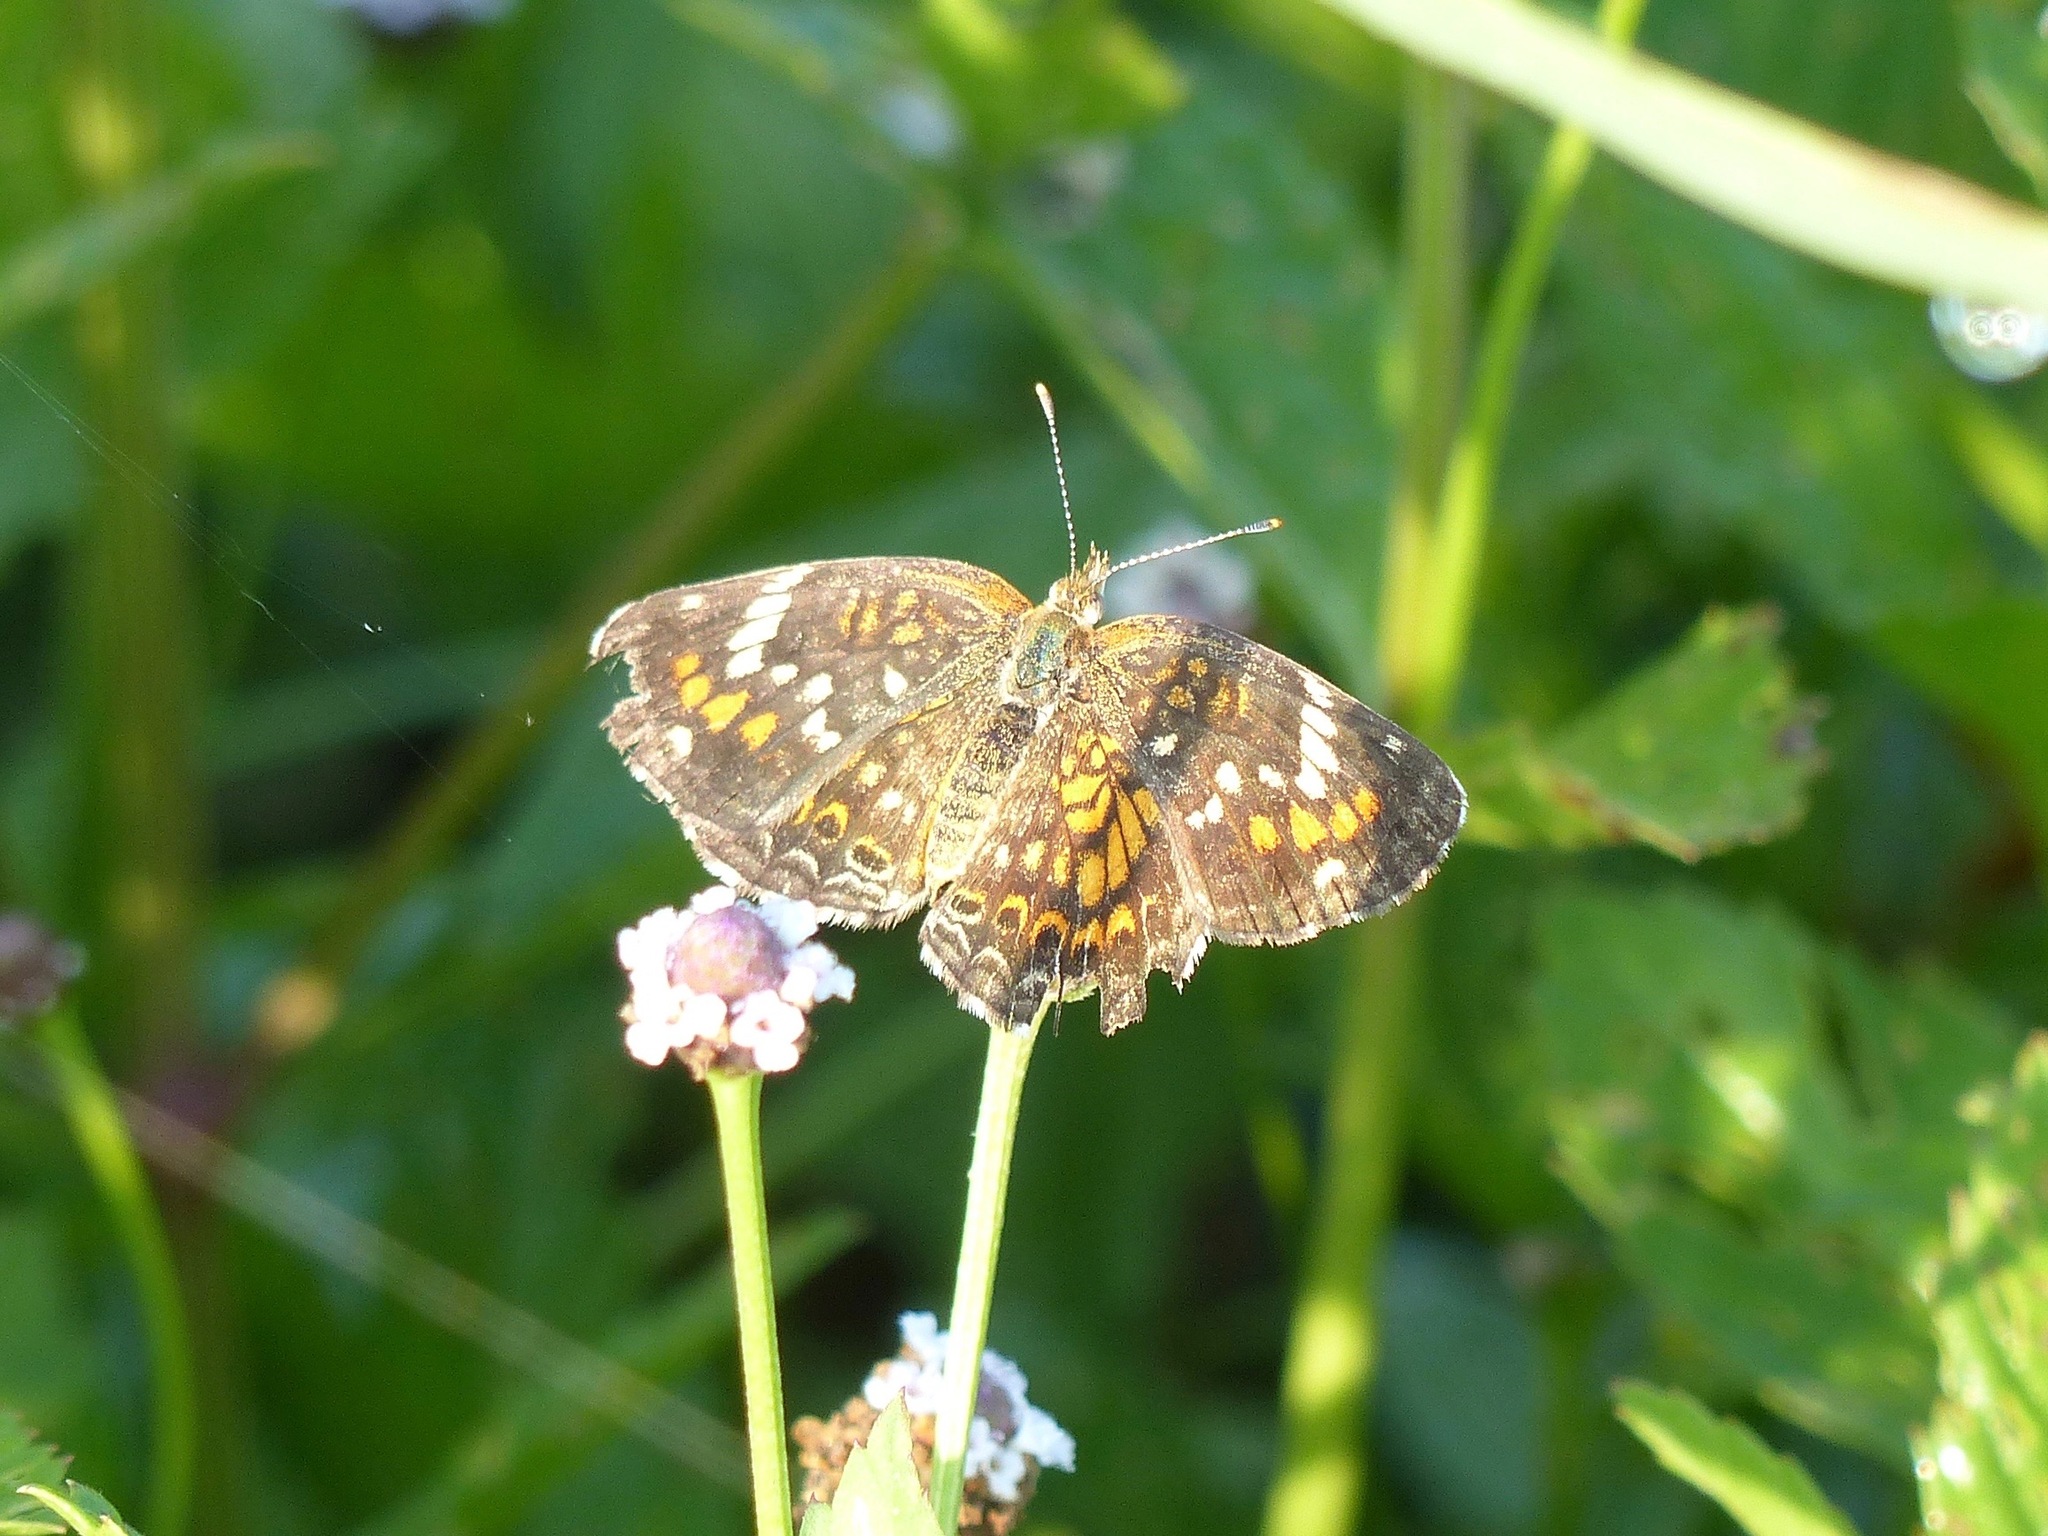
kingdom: Animalia
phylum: Arthropoda
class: Insecta
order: Lepidoptera
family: Nymphalidae
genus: Phyciodes
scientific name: Phyciodes phaon
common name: Phaon crescent
